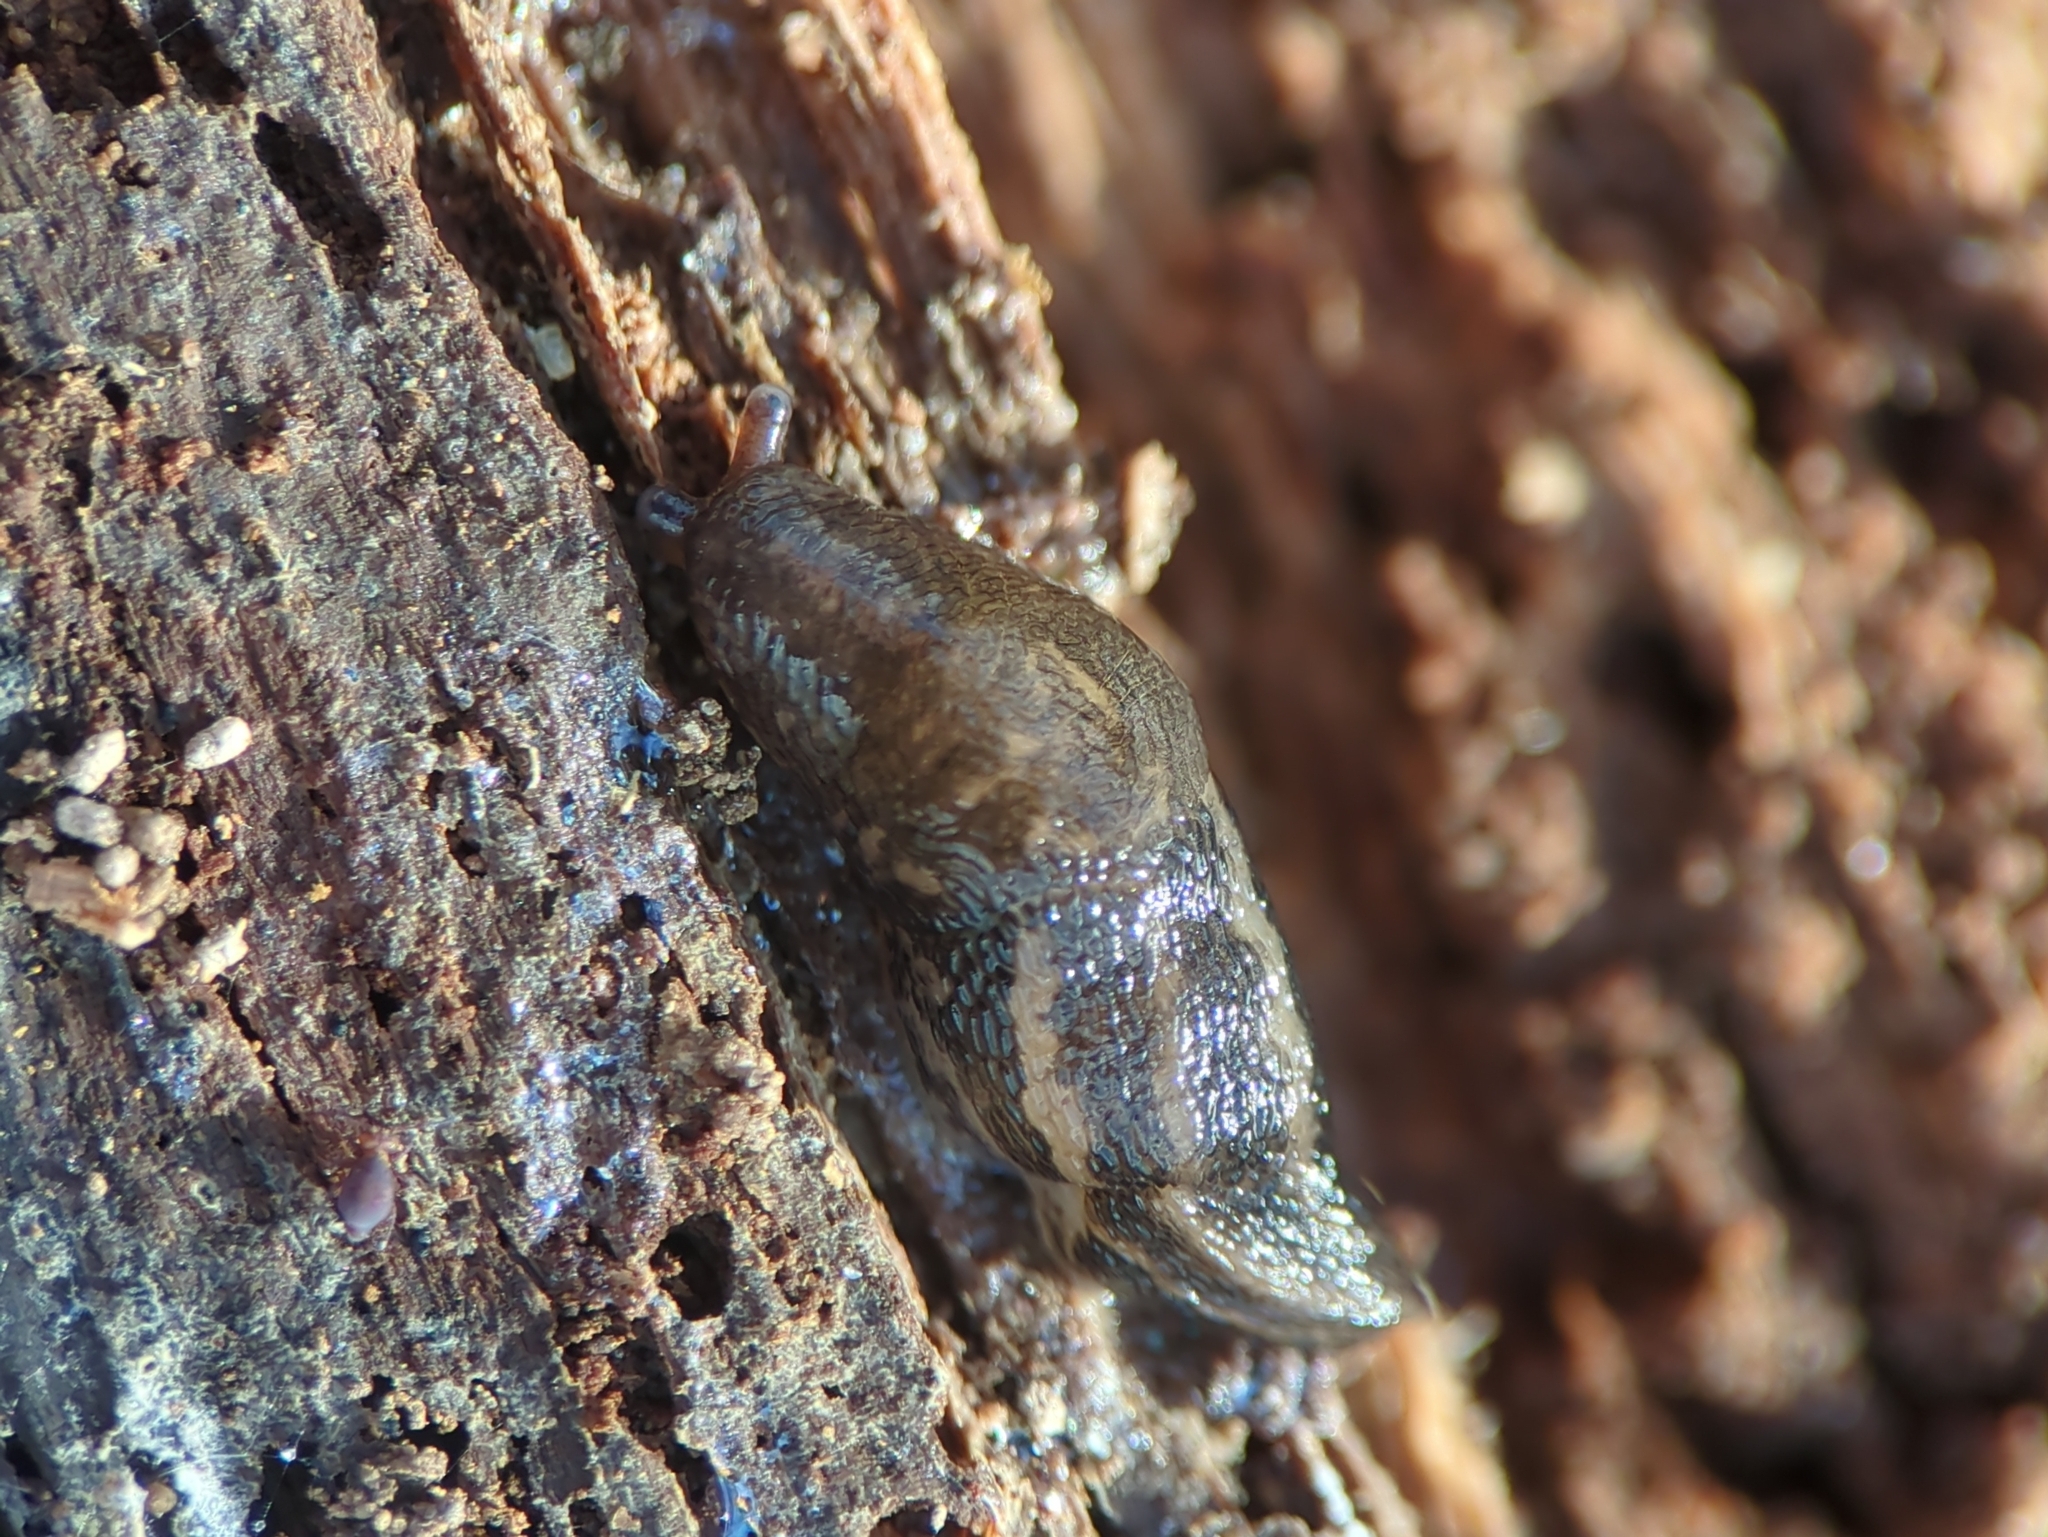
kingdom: Animalia
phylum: Mollusca
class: Gastropoda
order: Stylommatophora
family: Limacidae
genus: Limax
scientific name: Limax maximus
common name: Great grey slug
